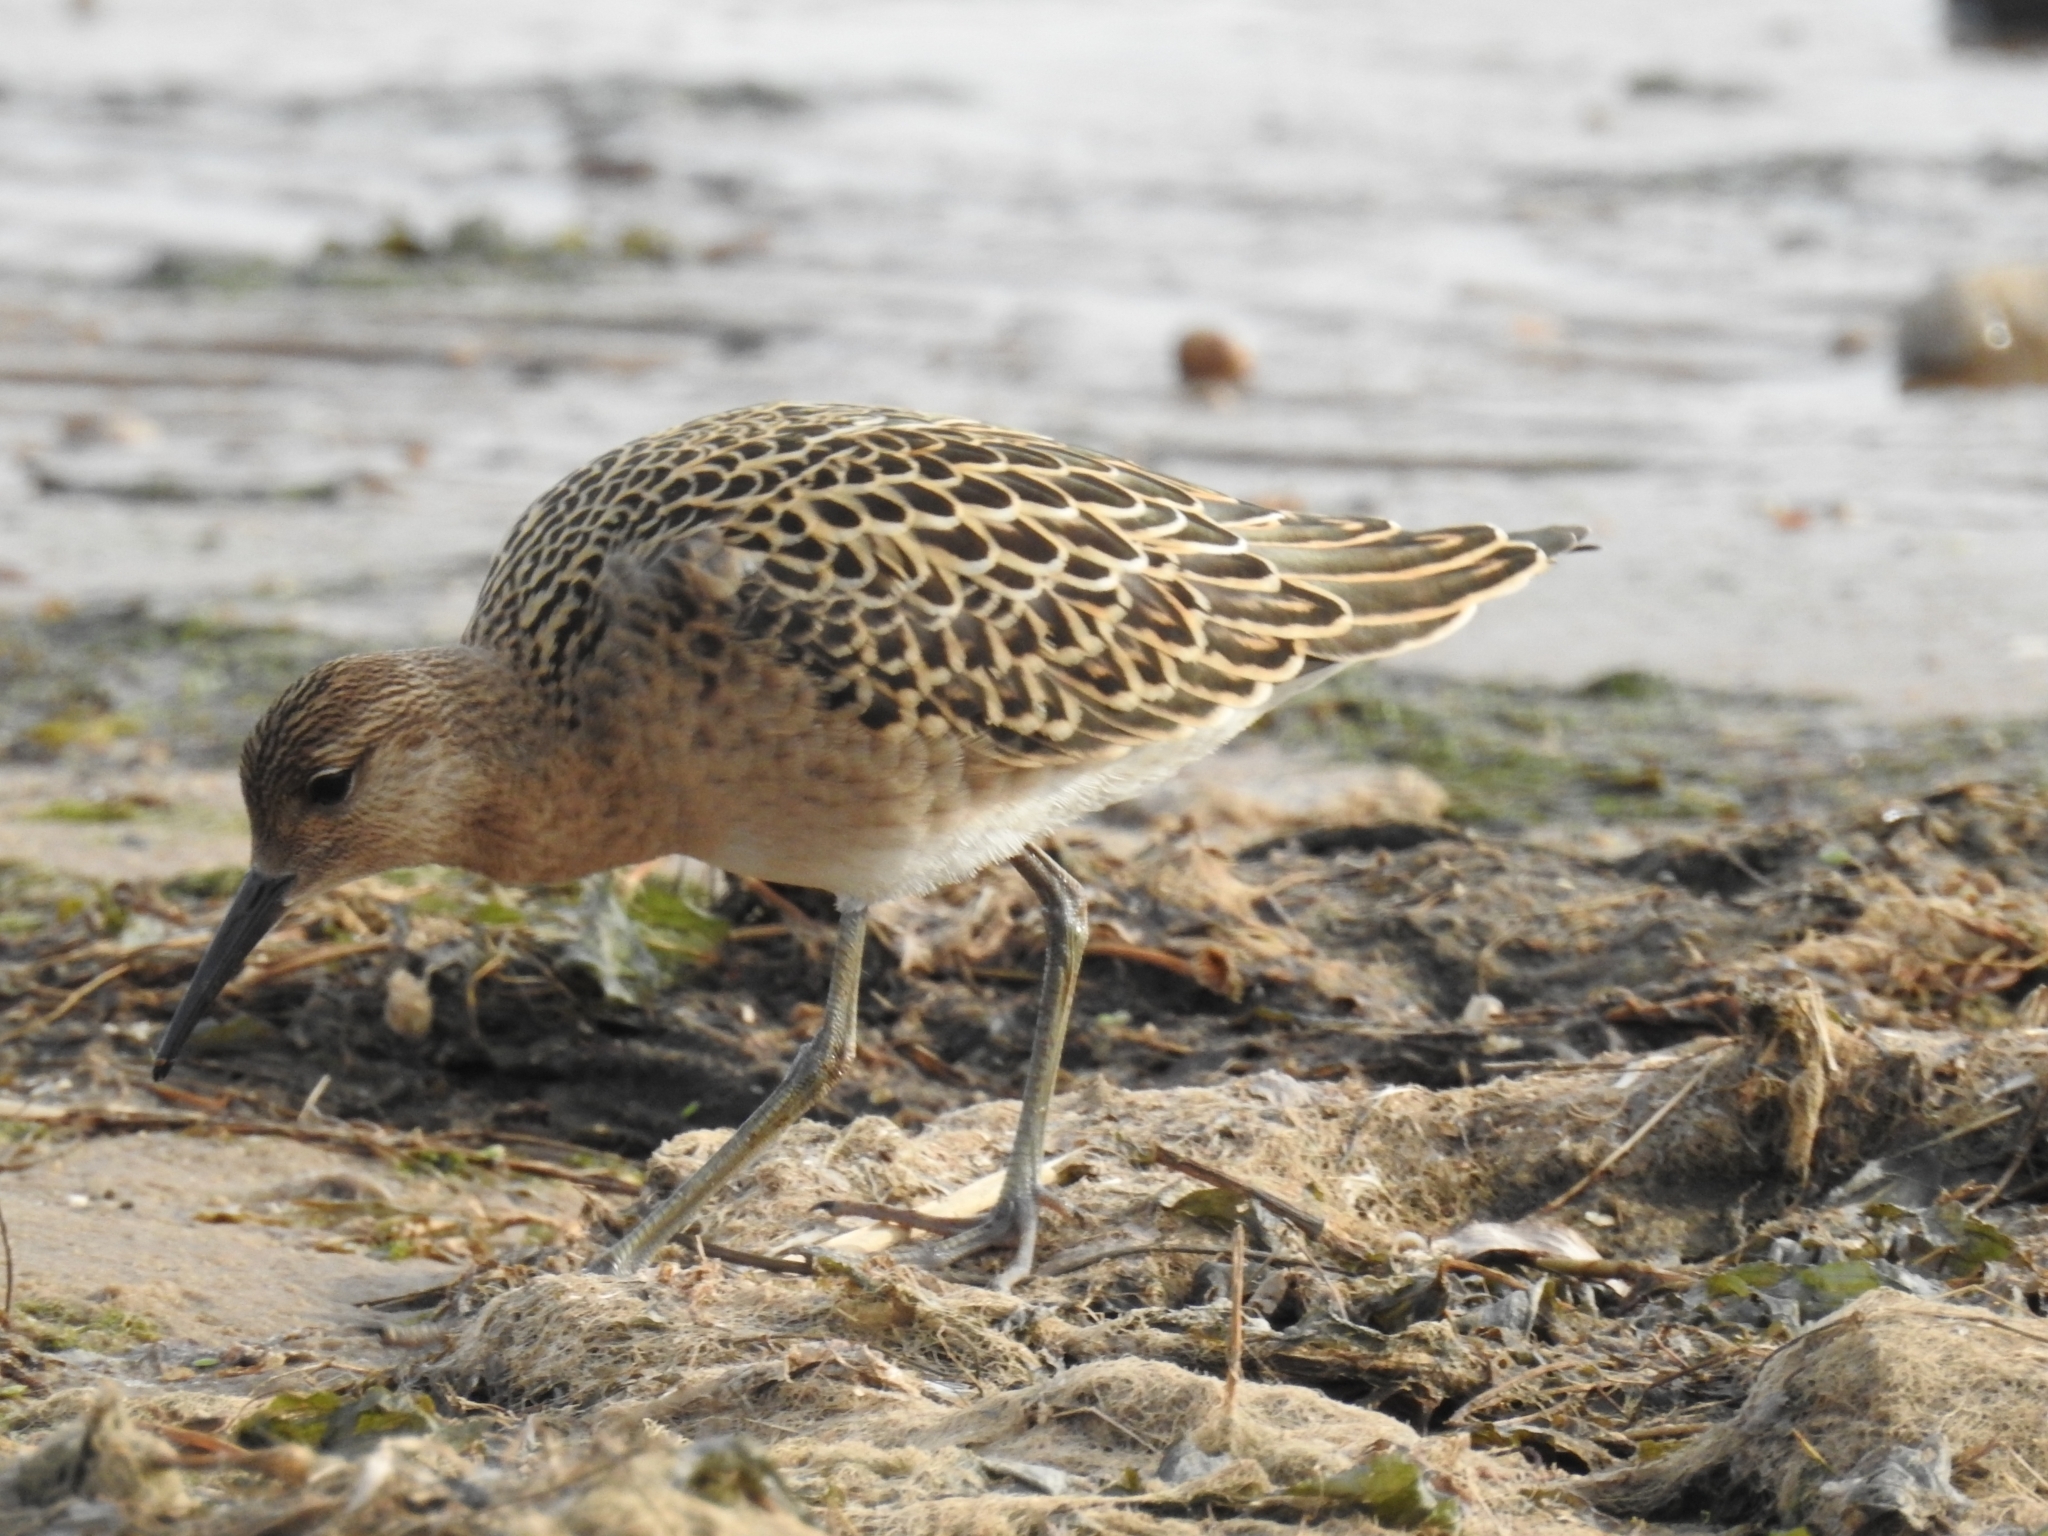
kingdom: Animalia
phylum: Chordata
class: Aves
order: Charadriiformes
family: Scolopacidae
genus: Calidris
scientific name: Calidris pugnax
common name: Ruff
